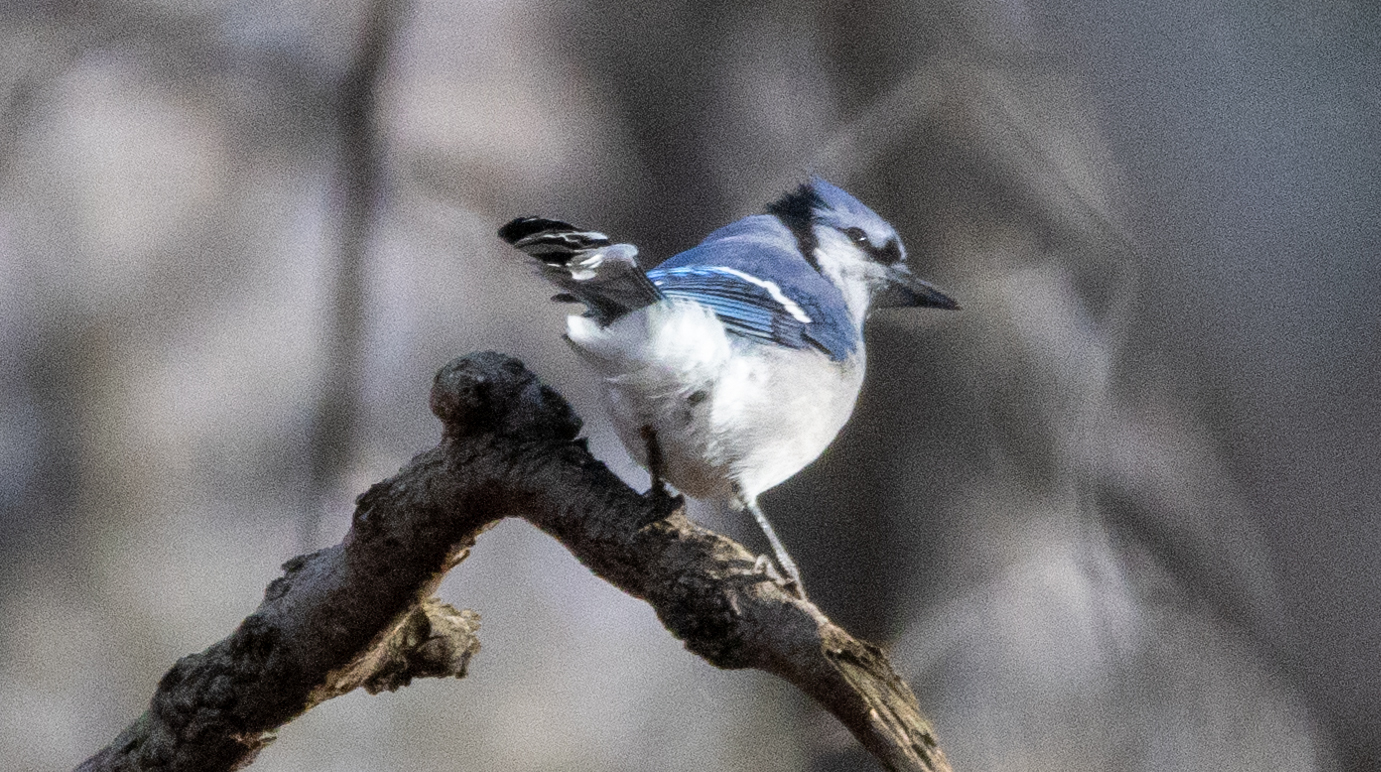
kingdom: Animalia
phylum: Chordata
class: Aves
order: Passeriformes
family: Corvidae
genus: Cyanocitta
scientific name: Cyanocitta cristata
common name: Blue jay
